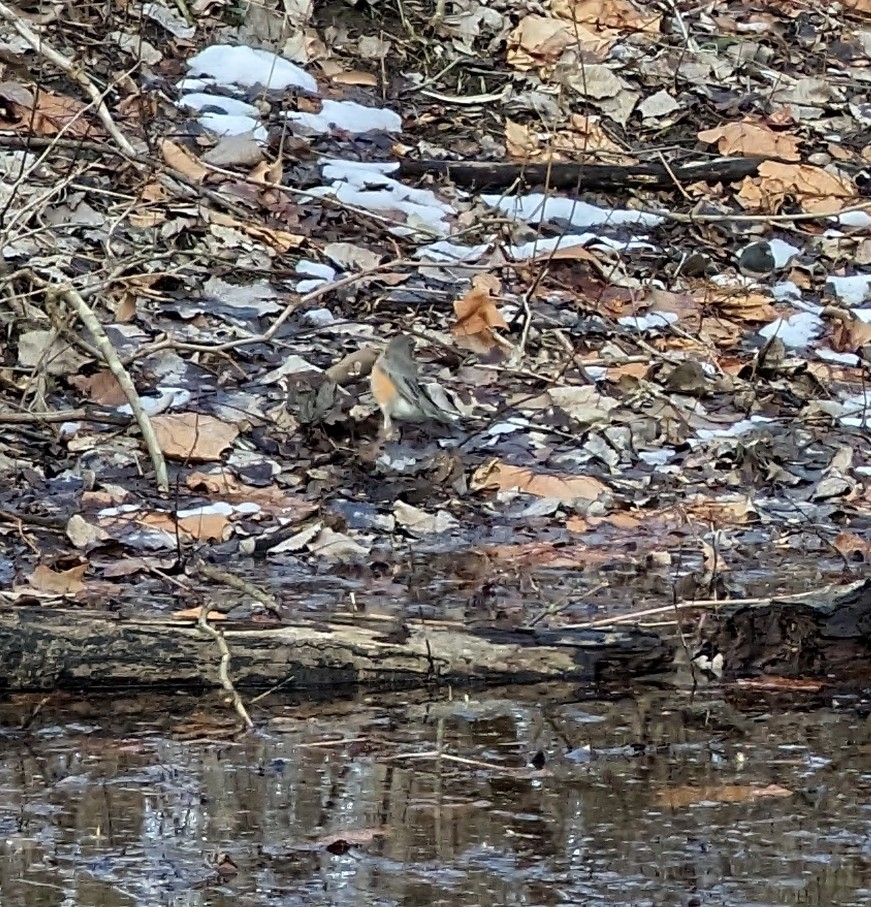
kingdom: Animalia
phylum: Chordata
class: Aves
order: Passeriformes
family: Turdidae
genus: Turdus
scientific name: Turdus migratorius
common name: American robin
